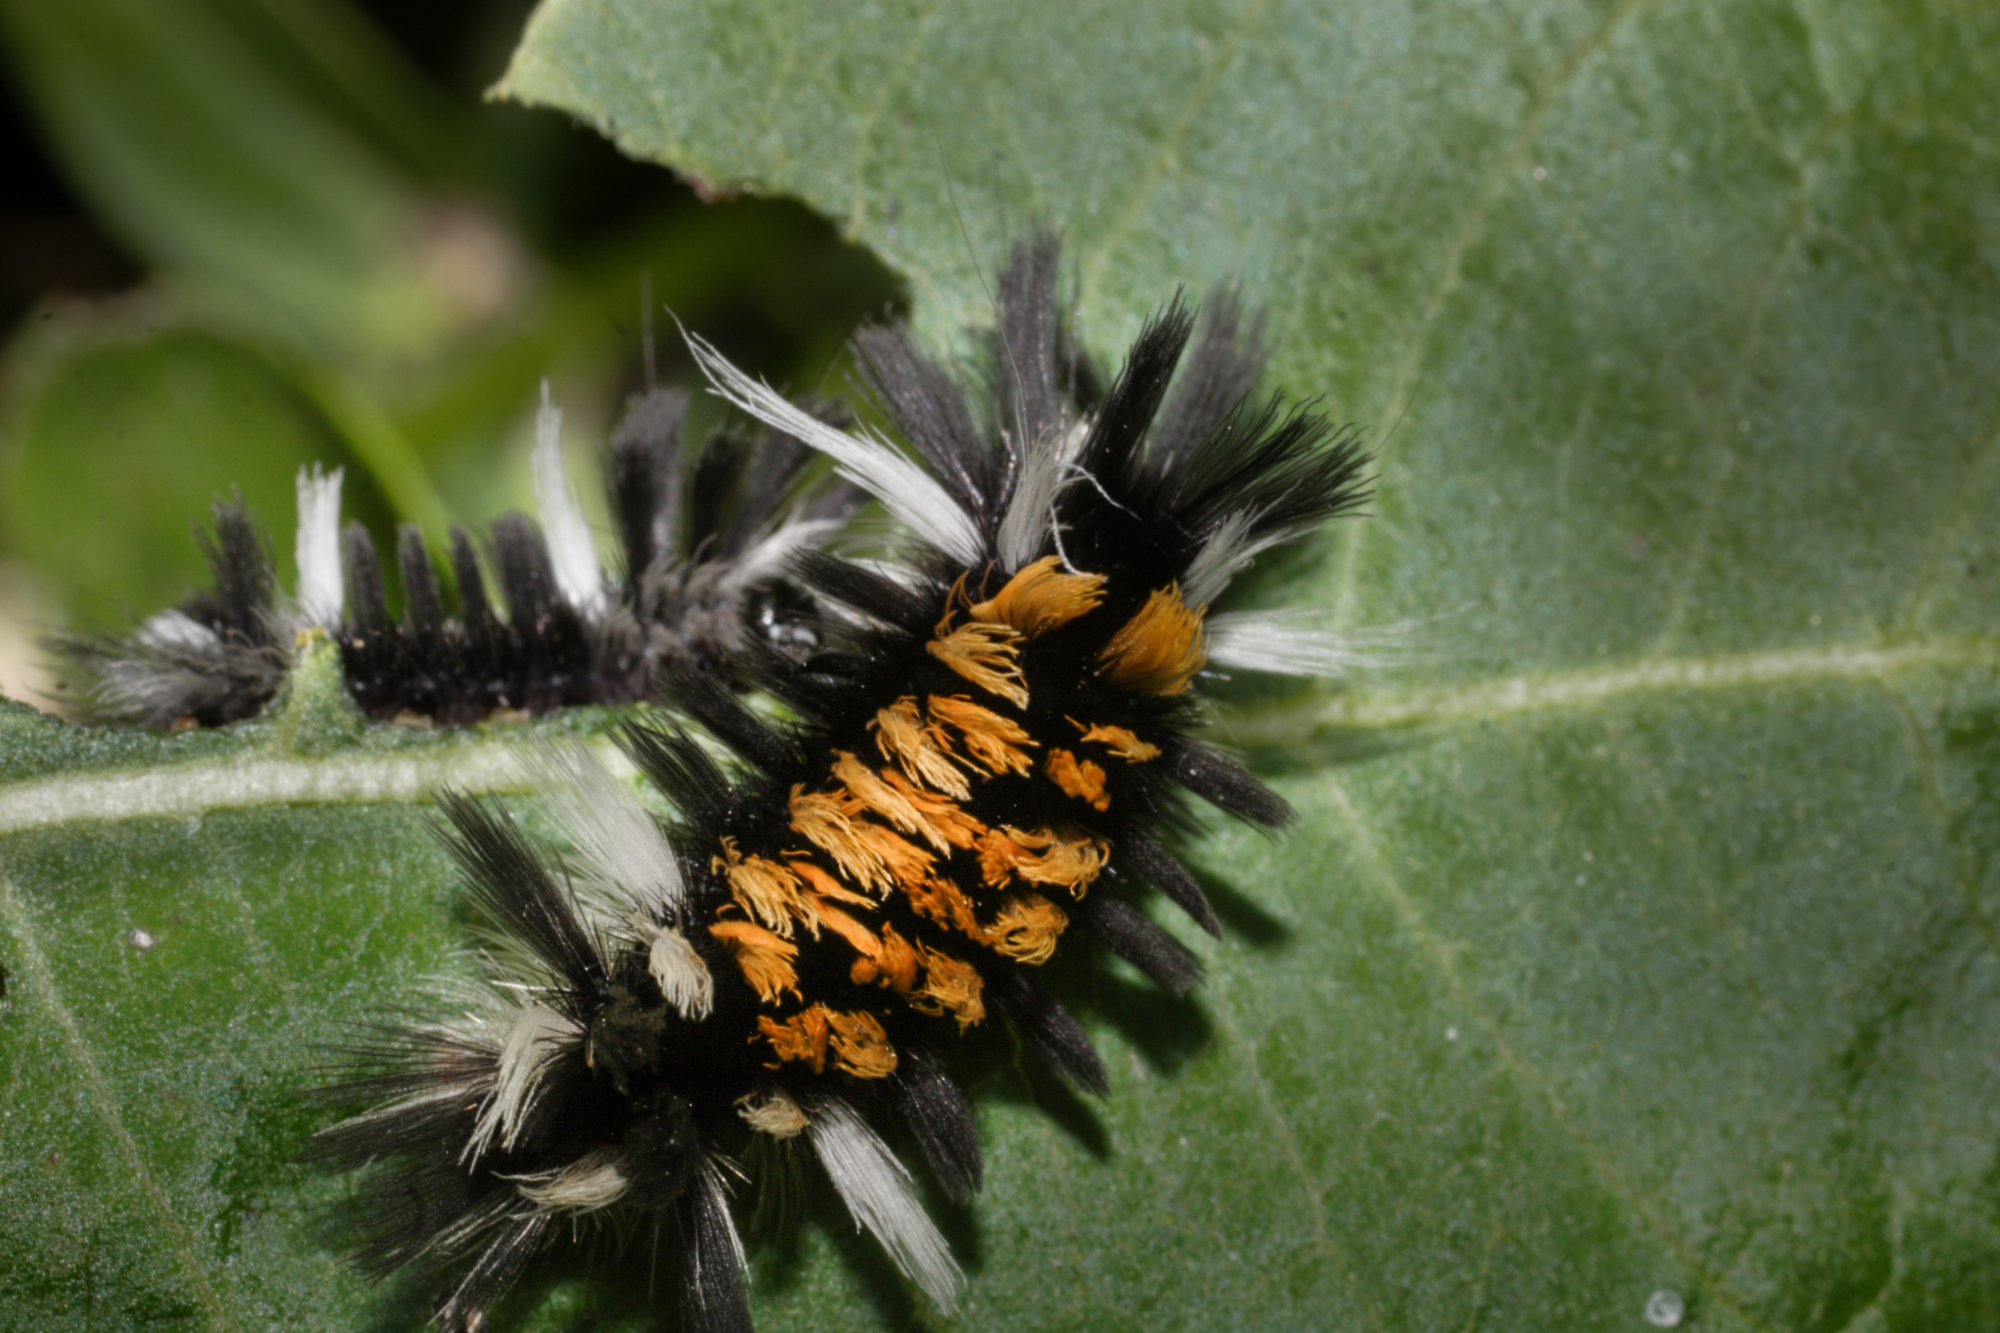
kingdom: Animalia
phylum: Arthropoda
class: Insecta
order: Lepidoptera
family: Erebidae
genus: Euchaetes
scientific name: Euchaetes egle
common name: Milkweed tussock moth
